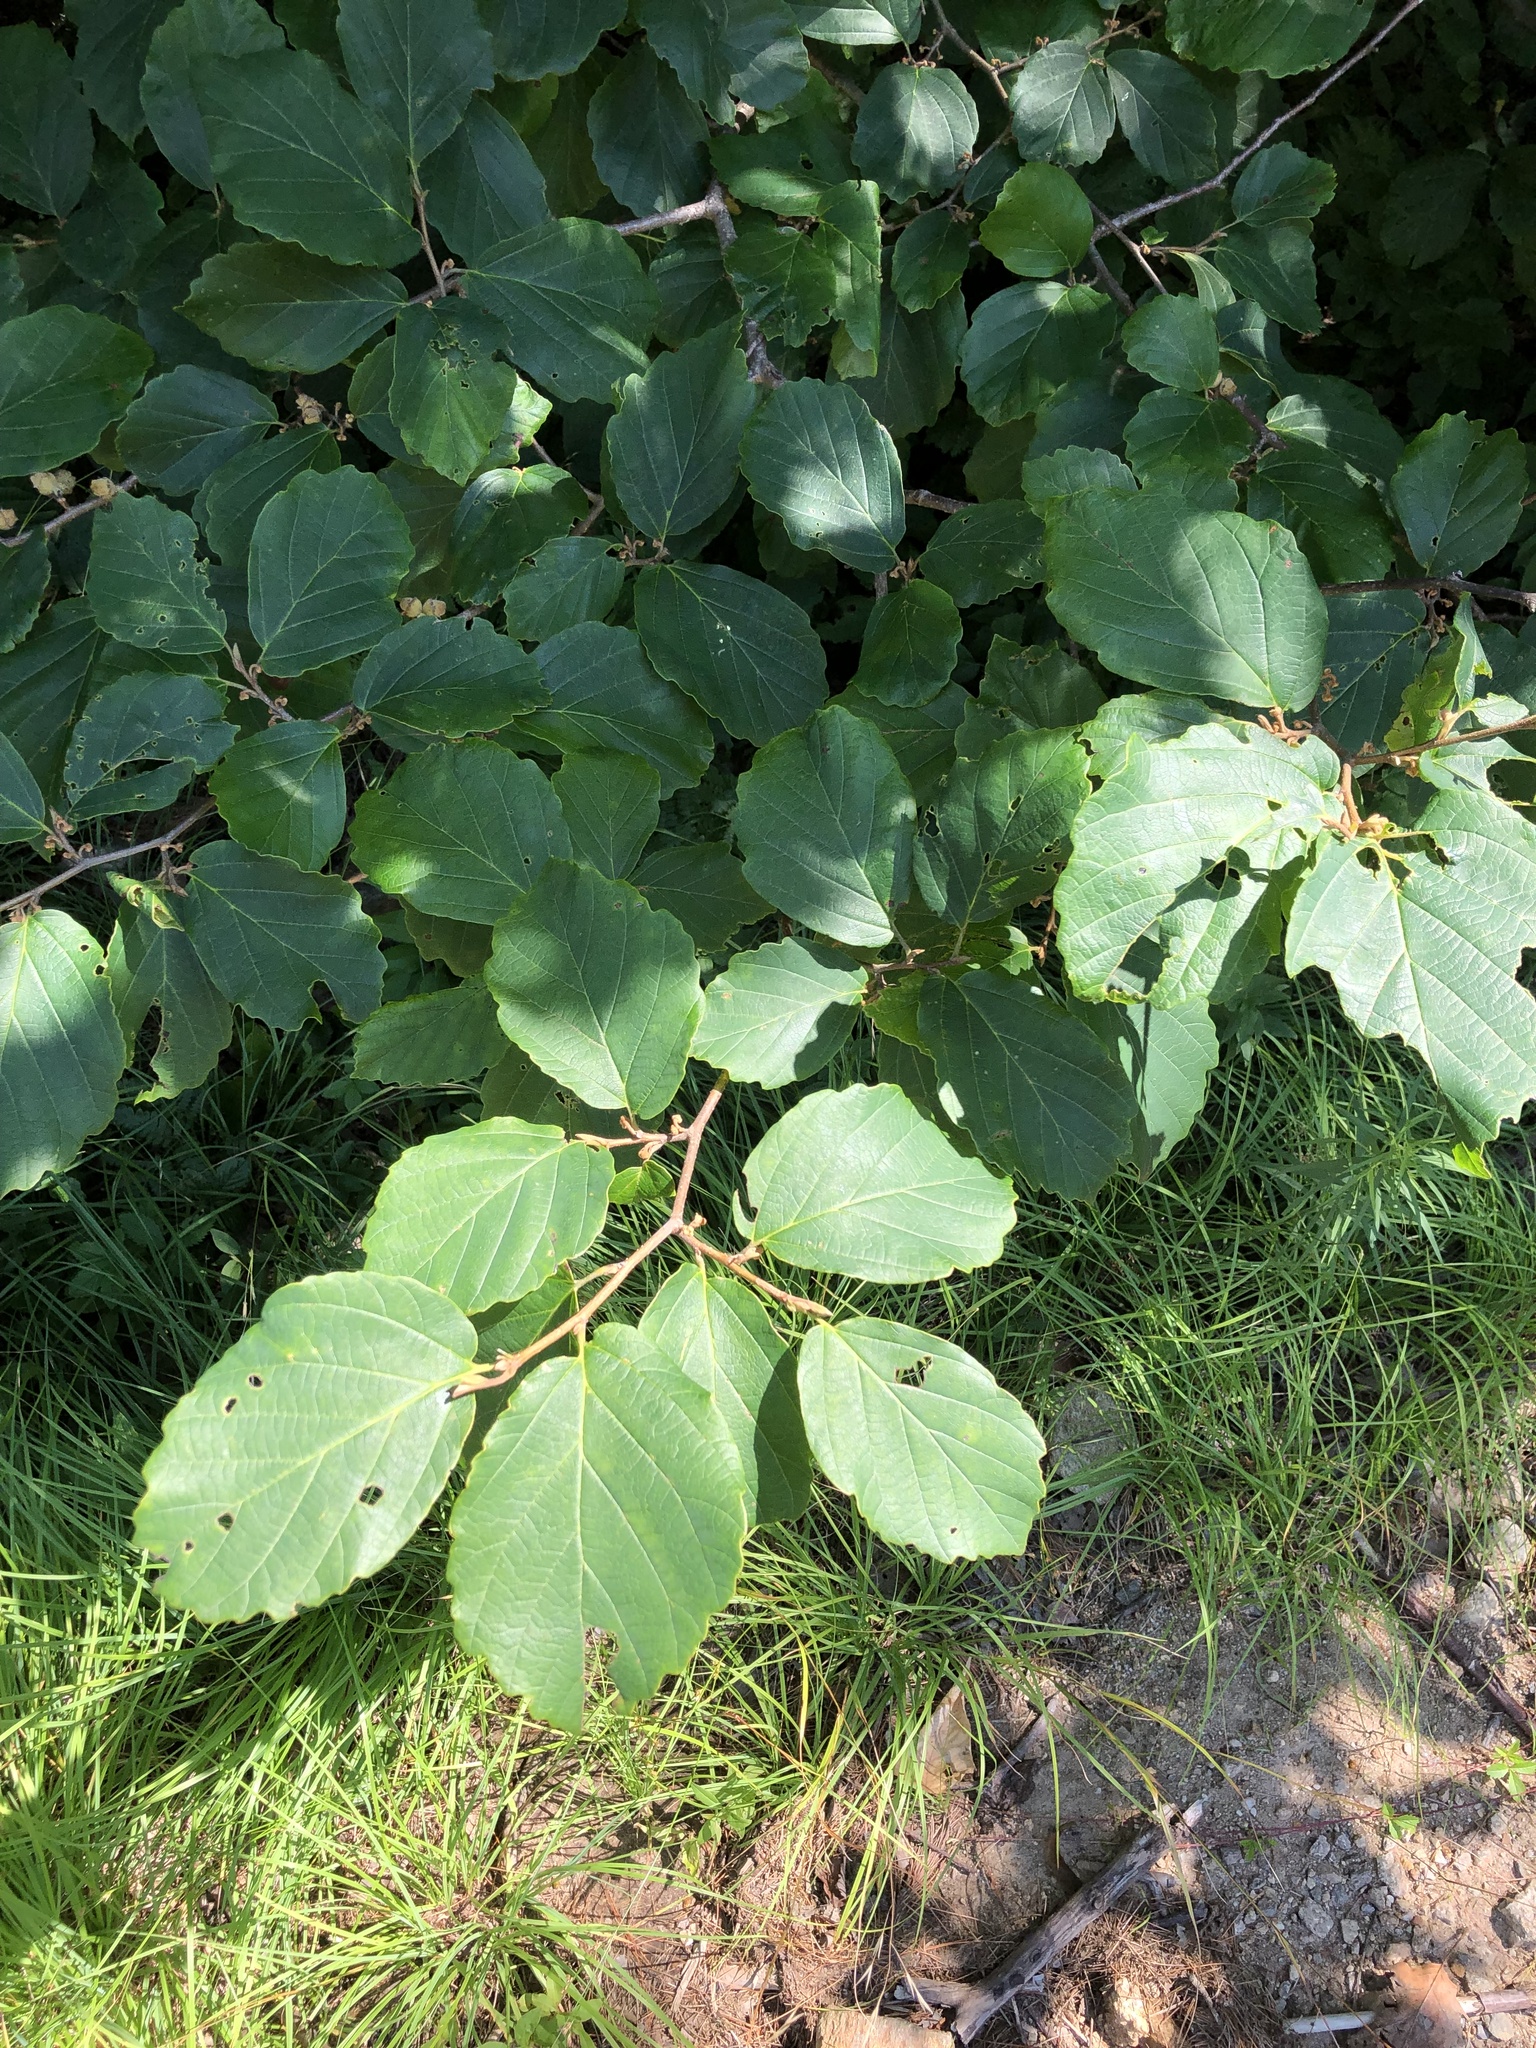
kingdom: Plantae
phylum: Tracheophyta
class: Magnoliopsida
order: Saxifragales
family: Hamamelidaceae
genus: Hamamelis
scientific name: Hamamelis virginiana
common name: Witch-hazel
